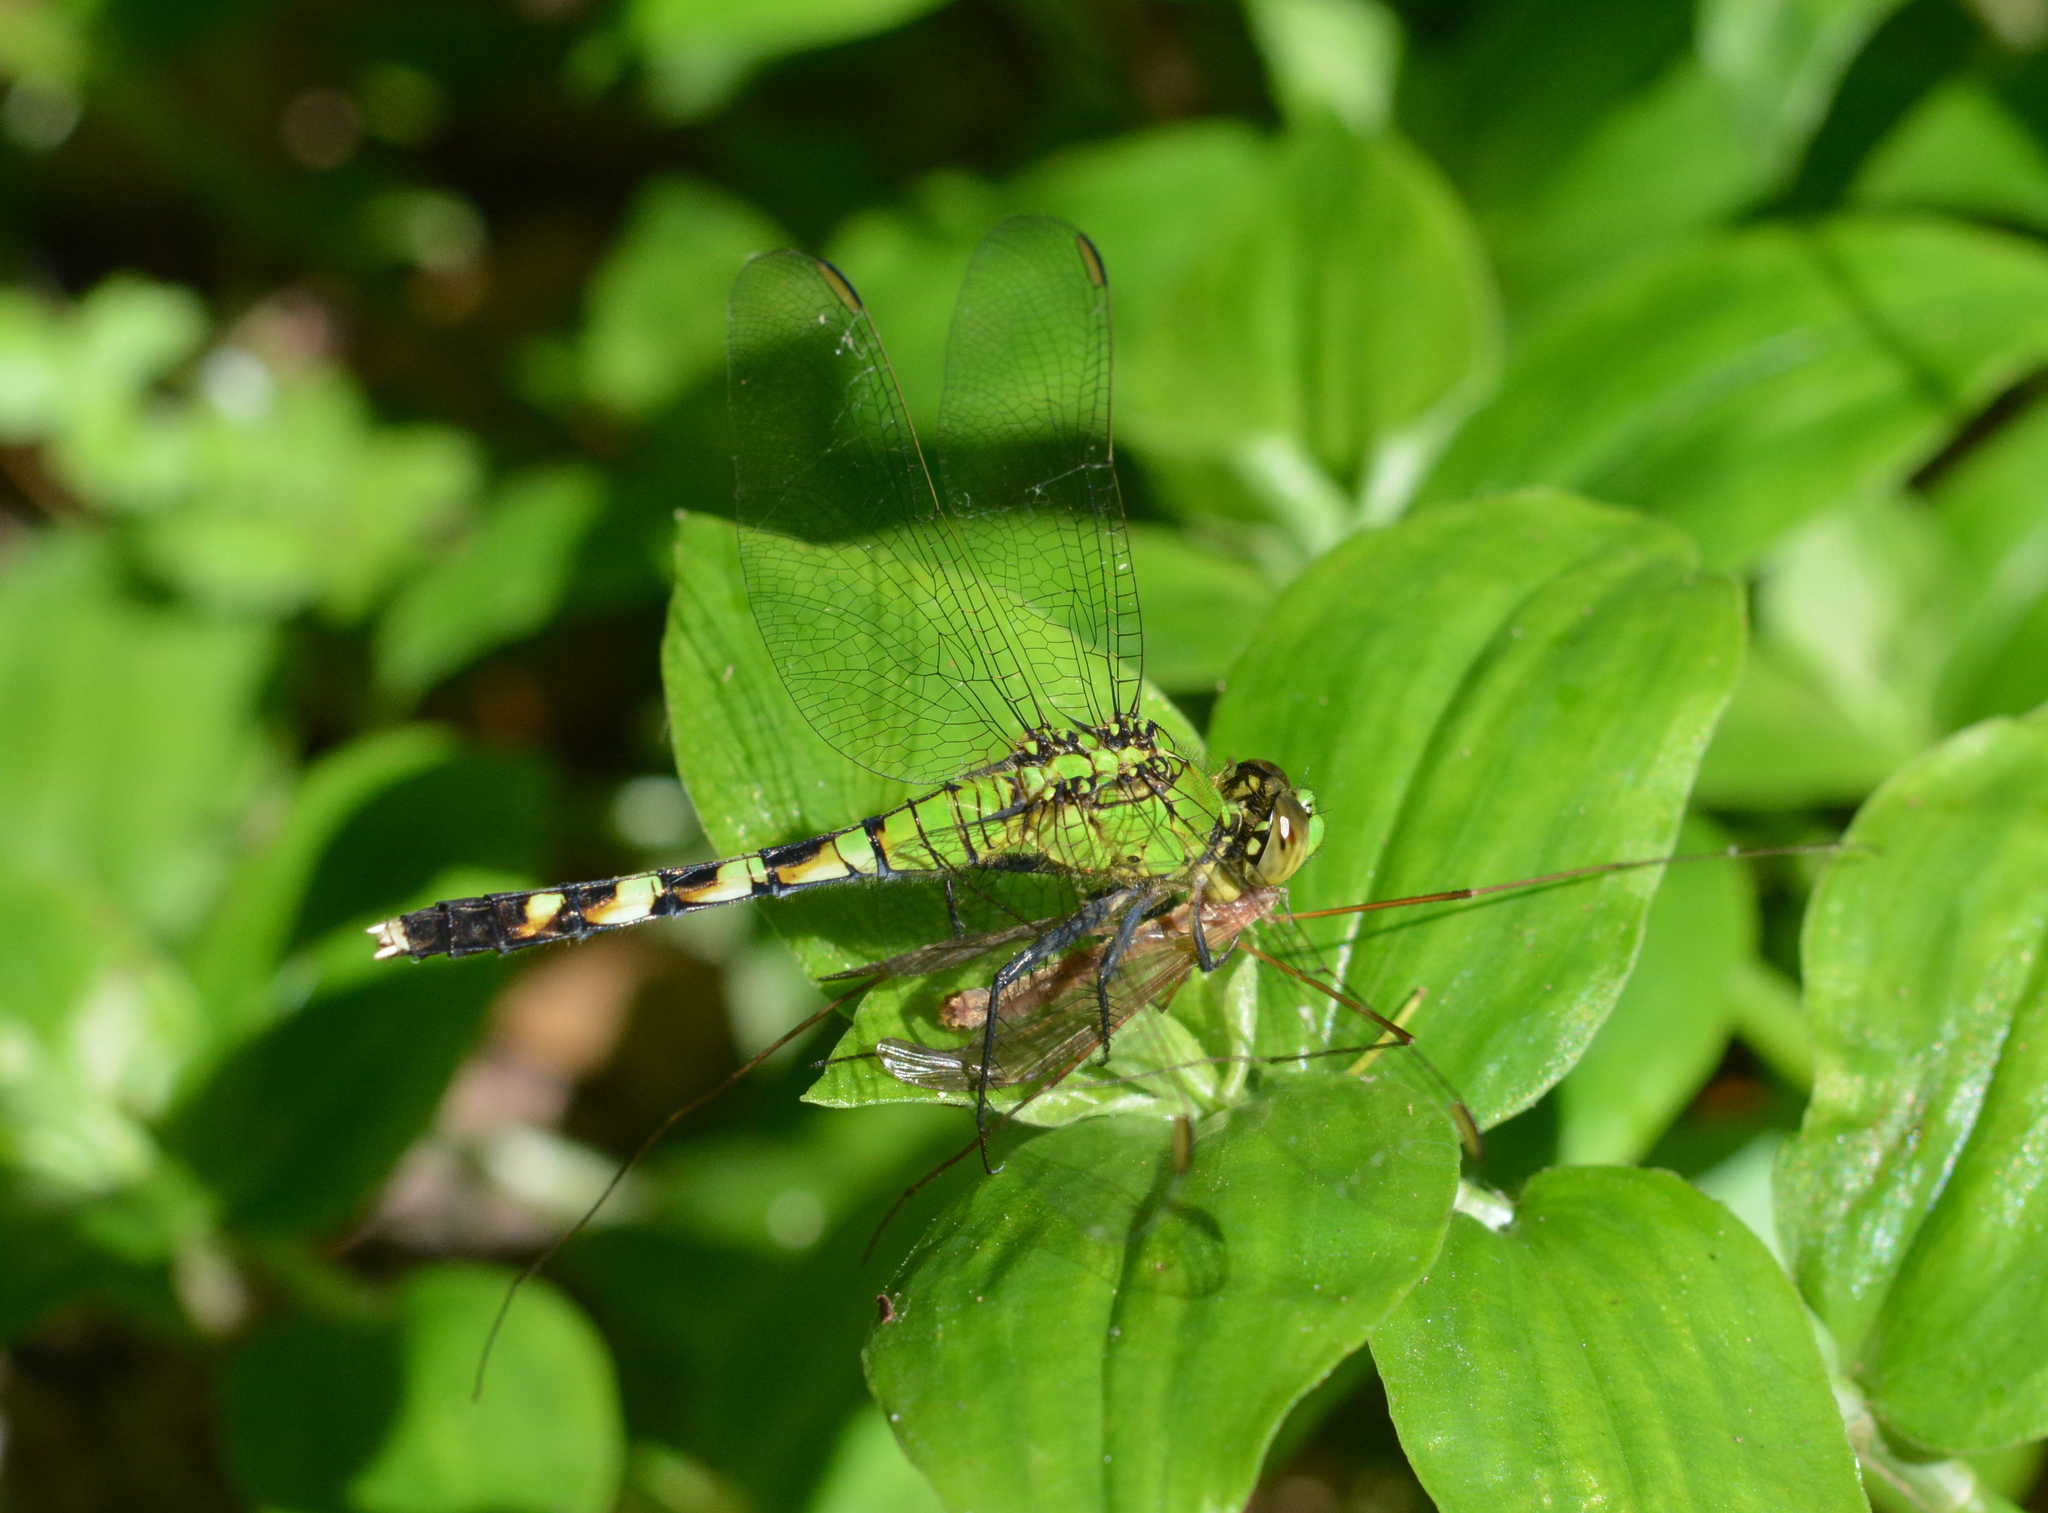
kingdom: Animalia
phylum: Arthropoda
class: Insecta
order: Odonata
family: Libellulidae
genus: Erythemis
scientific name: Erythemis simplicicollis
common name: Eastern pondhawk
